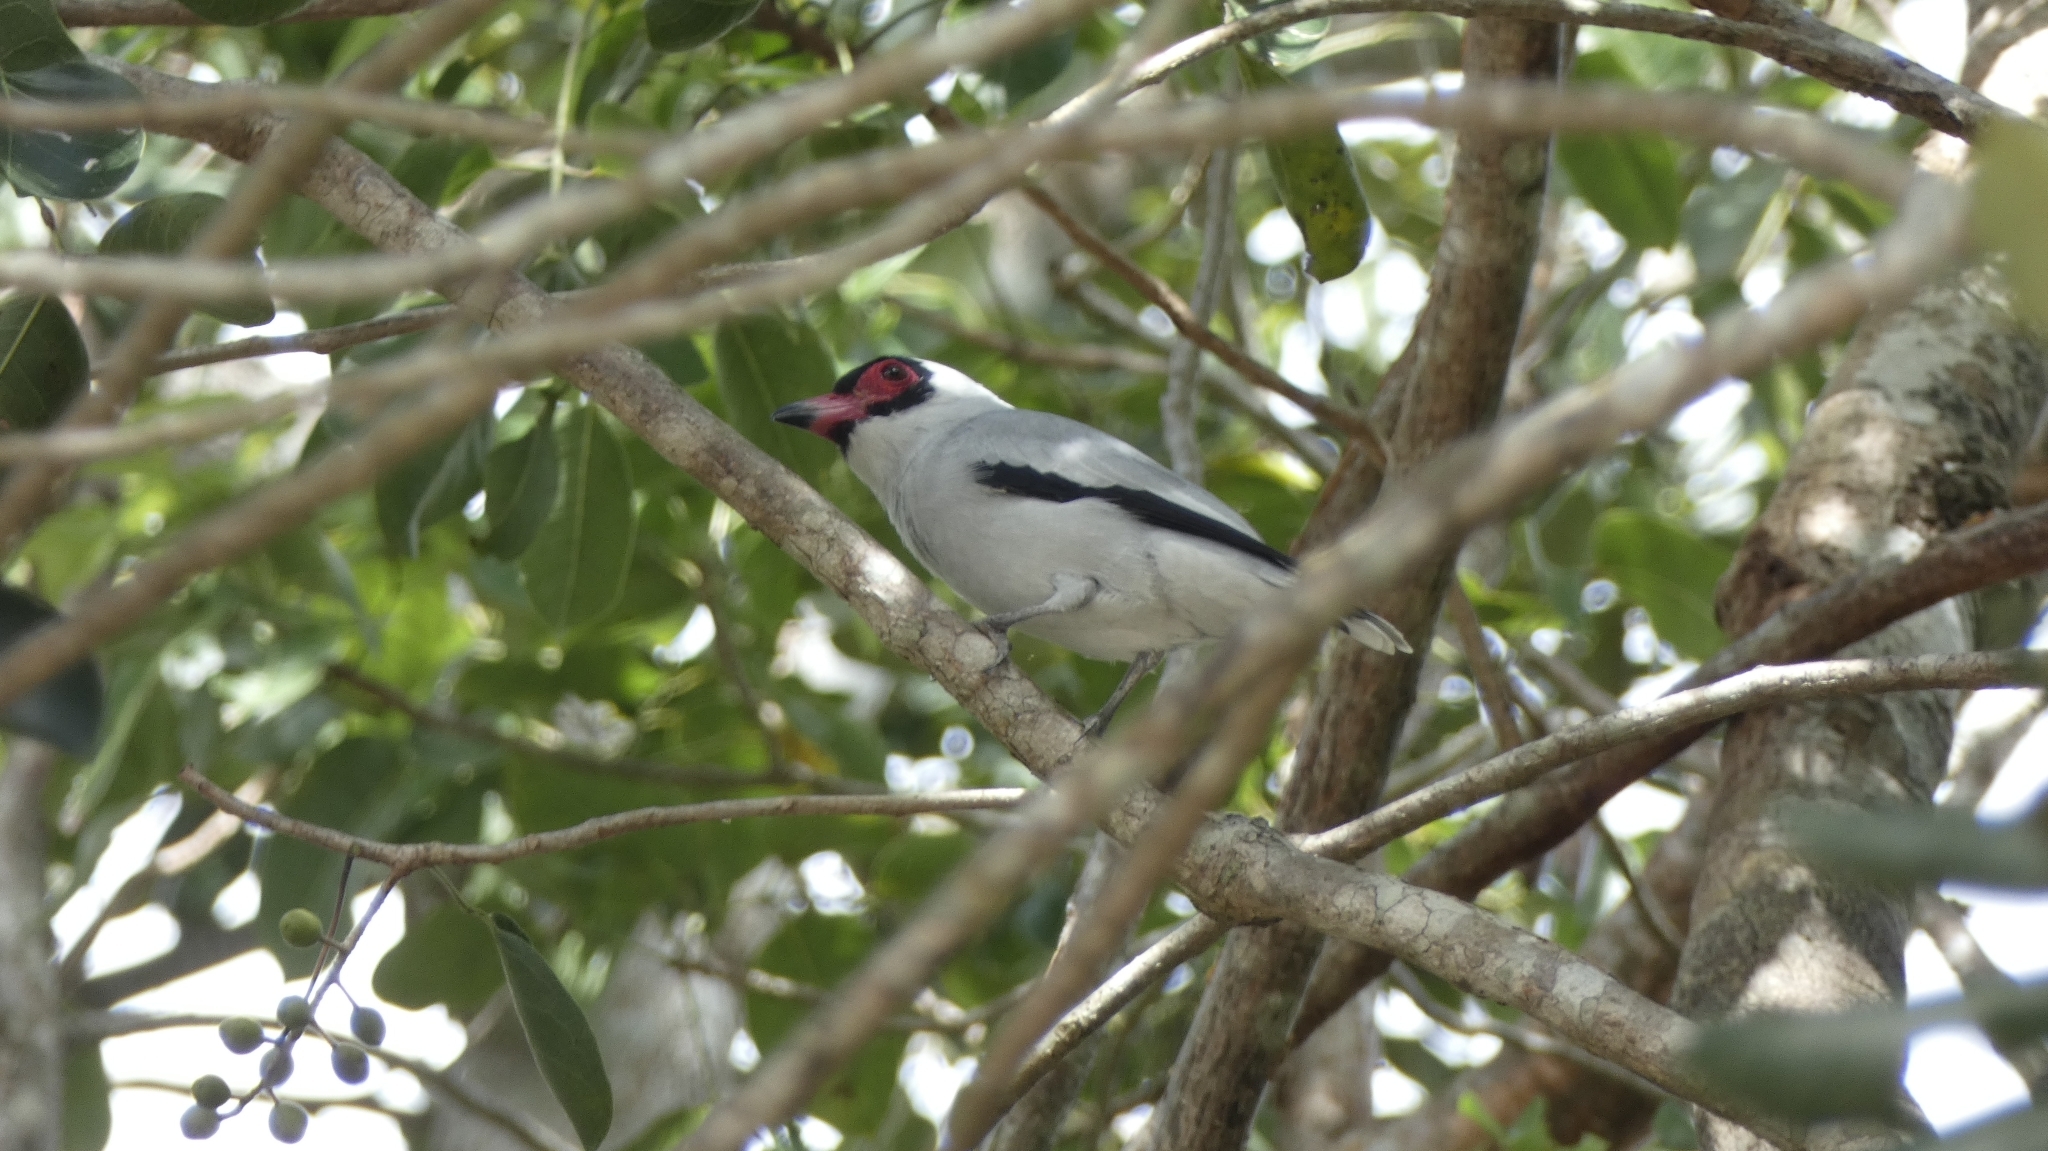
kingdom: Animalia
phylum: Chordata
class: Aves
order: Passeriformes
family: Cotingidae
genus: Tityra
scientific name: Tityra semifasciata
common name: Masked tityra
